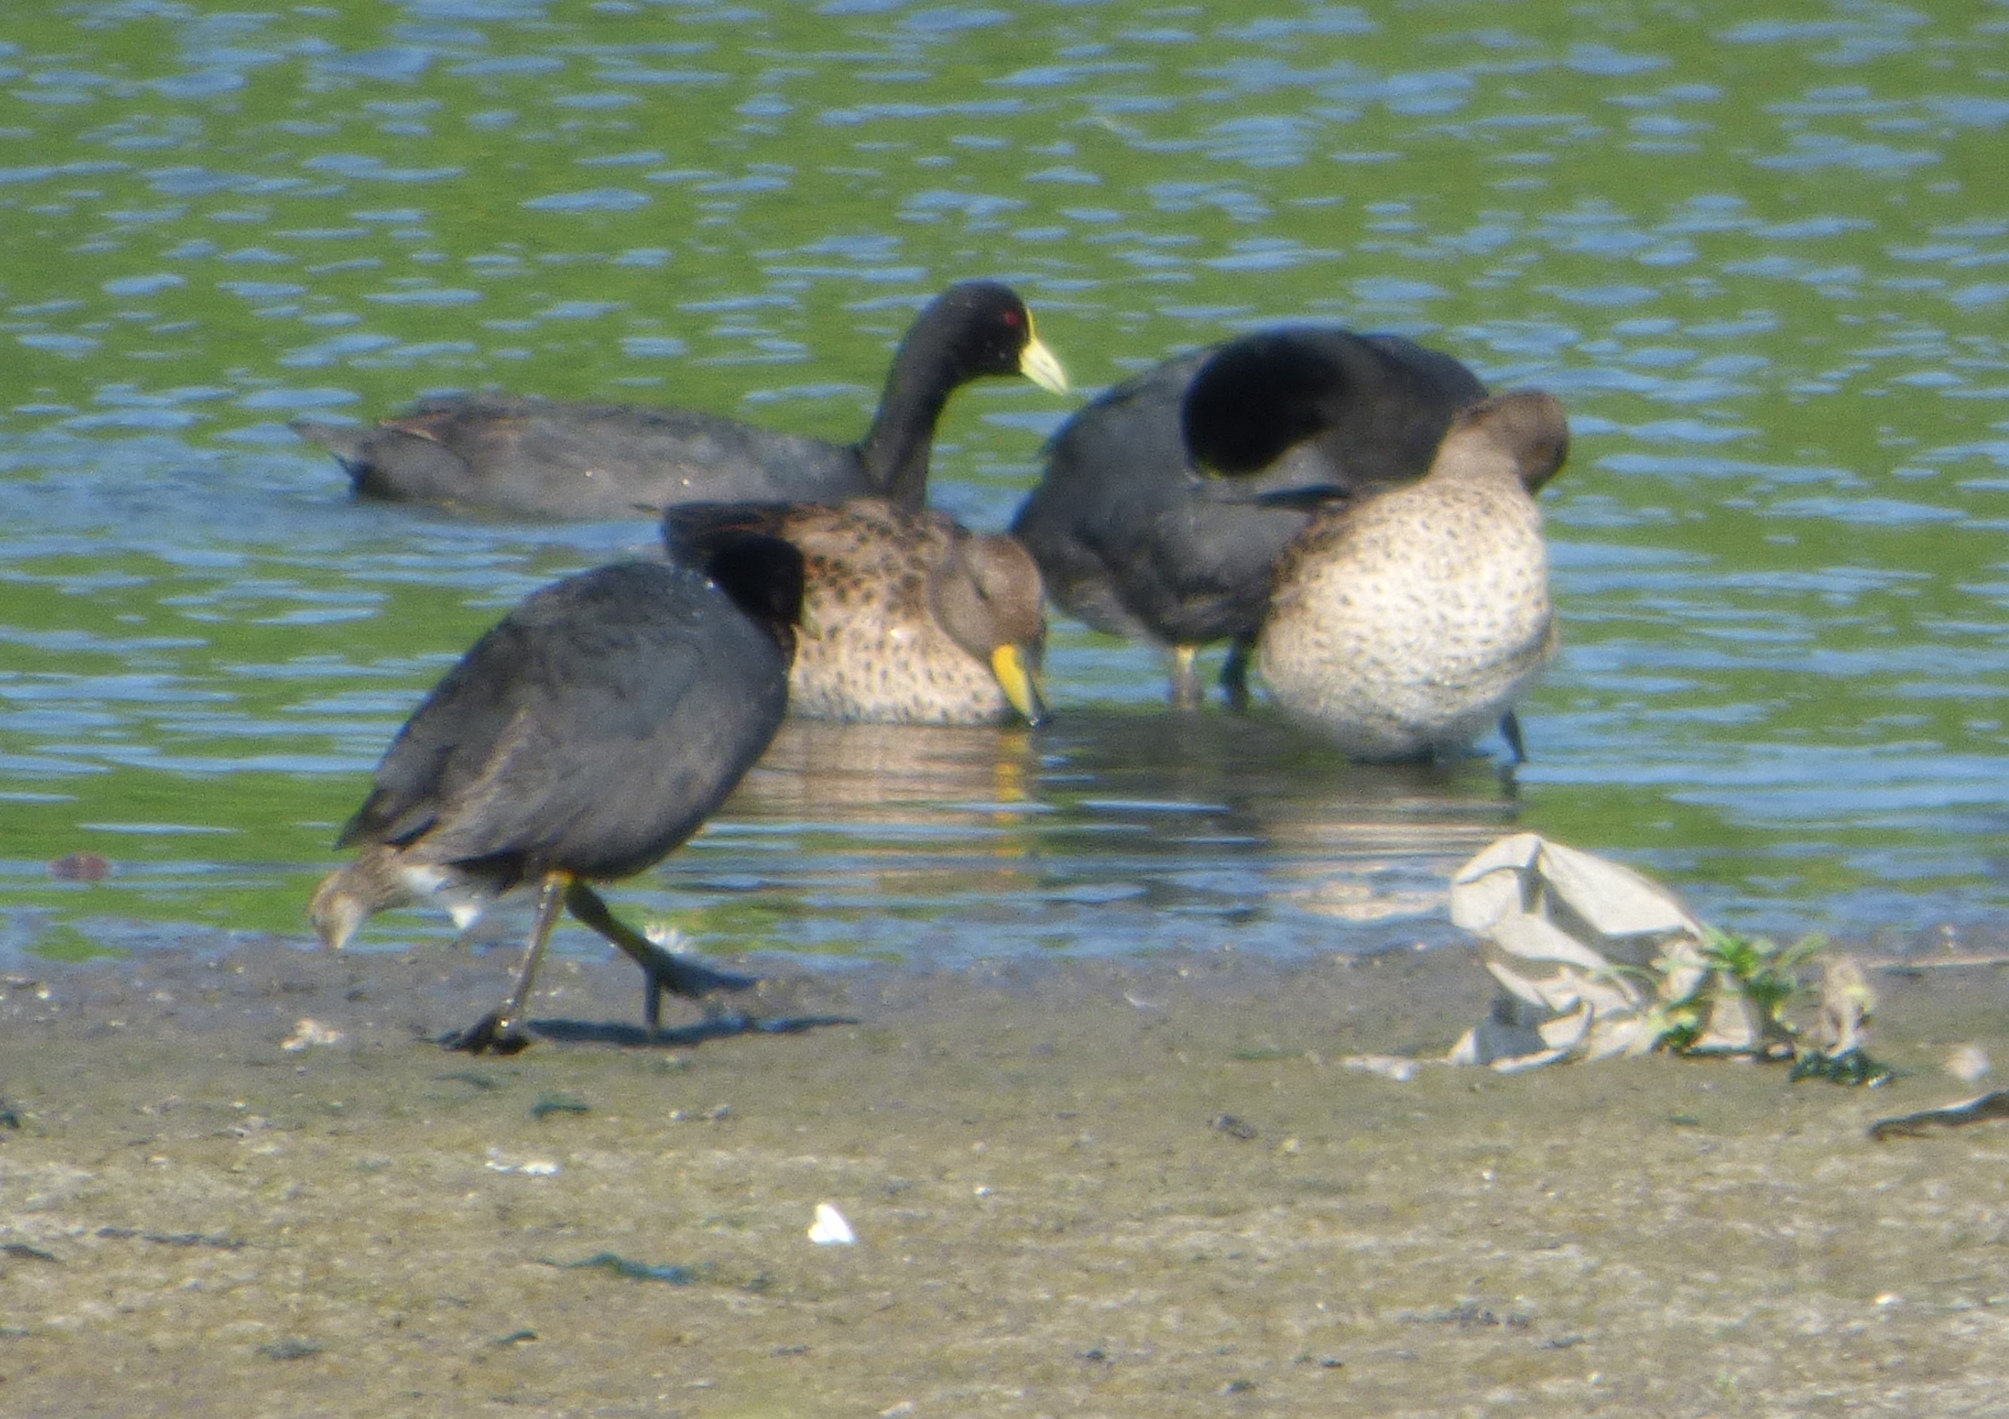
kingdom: Animalia
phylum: Chordata
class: Aves
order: Anseriformes
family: Anatidae
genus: Anas
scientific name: Anas flavirostris
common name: Yellow-billed teal
